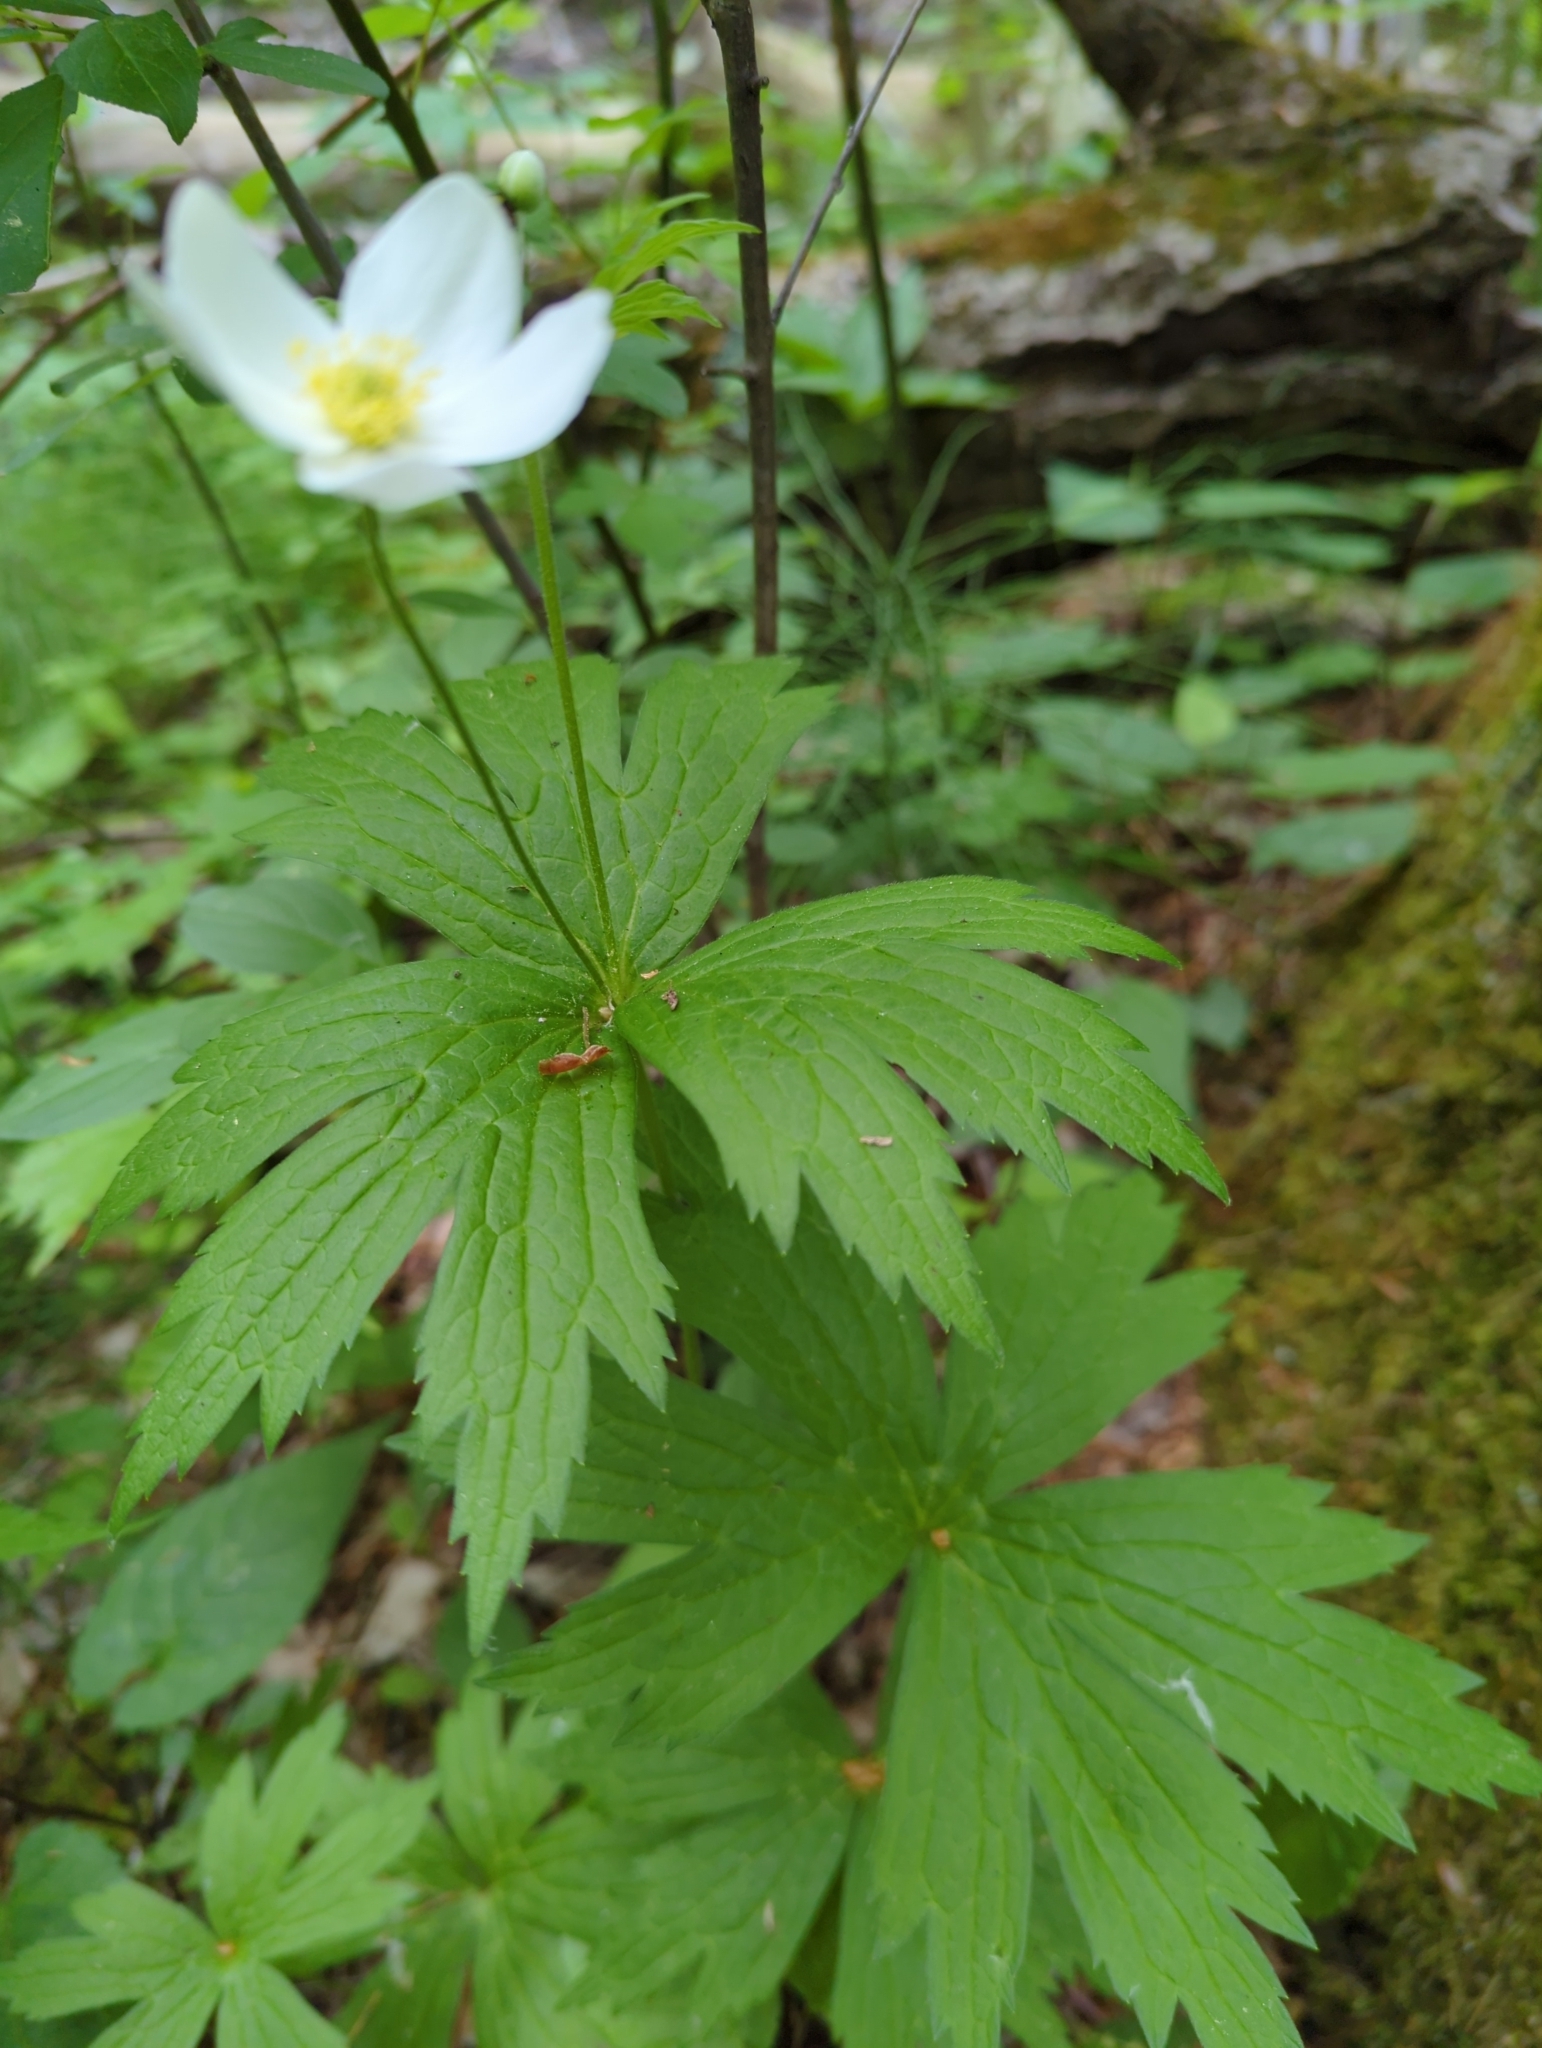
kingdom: Plantae
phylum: Tracheophyta
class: Magnoliopsida
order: Ranunculales
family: Ranunculaceae
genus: Anemonastrum
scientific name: Anemonastrum canadense
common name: Canada anemone
